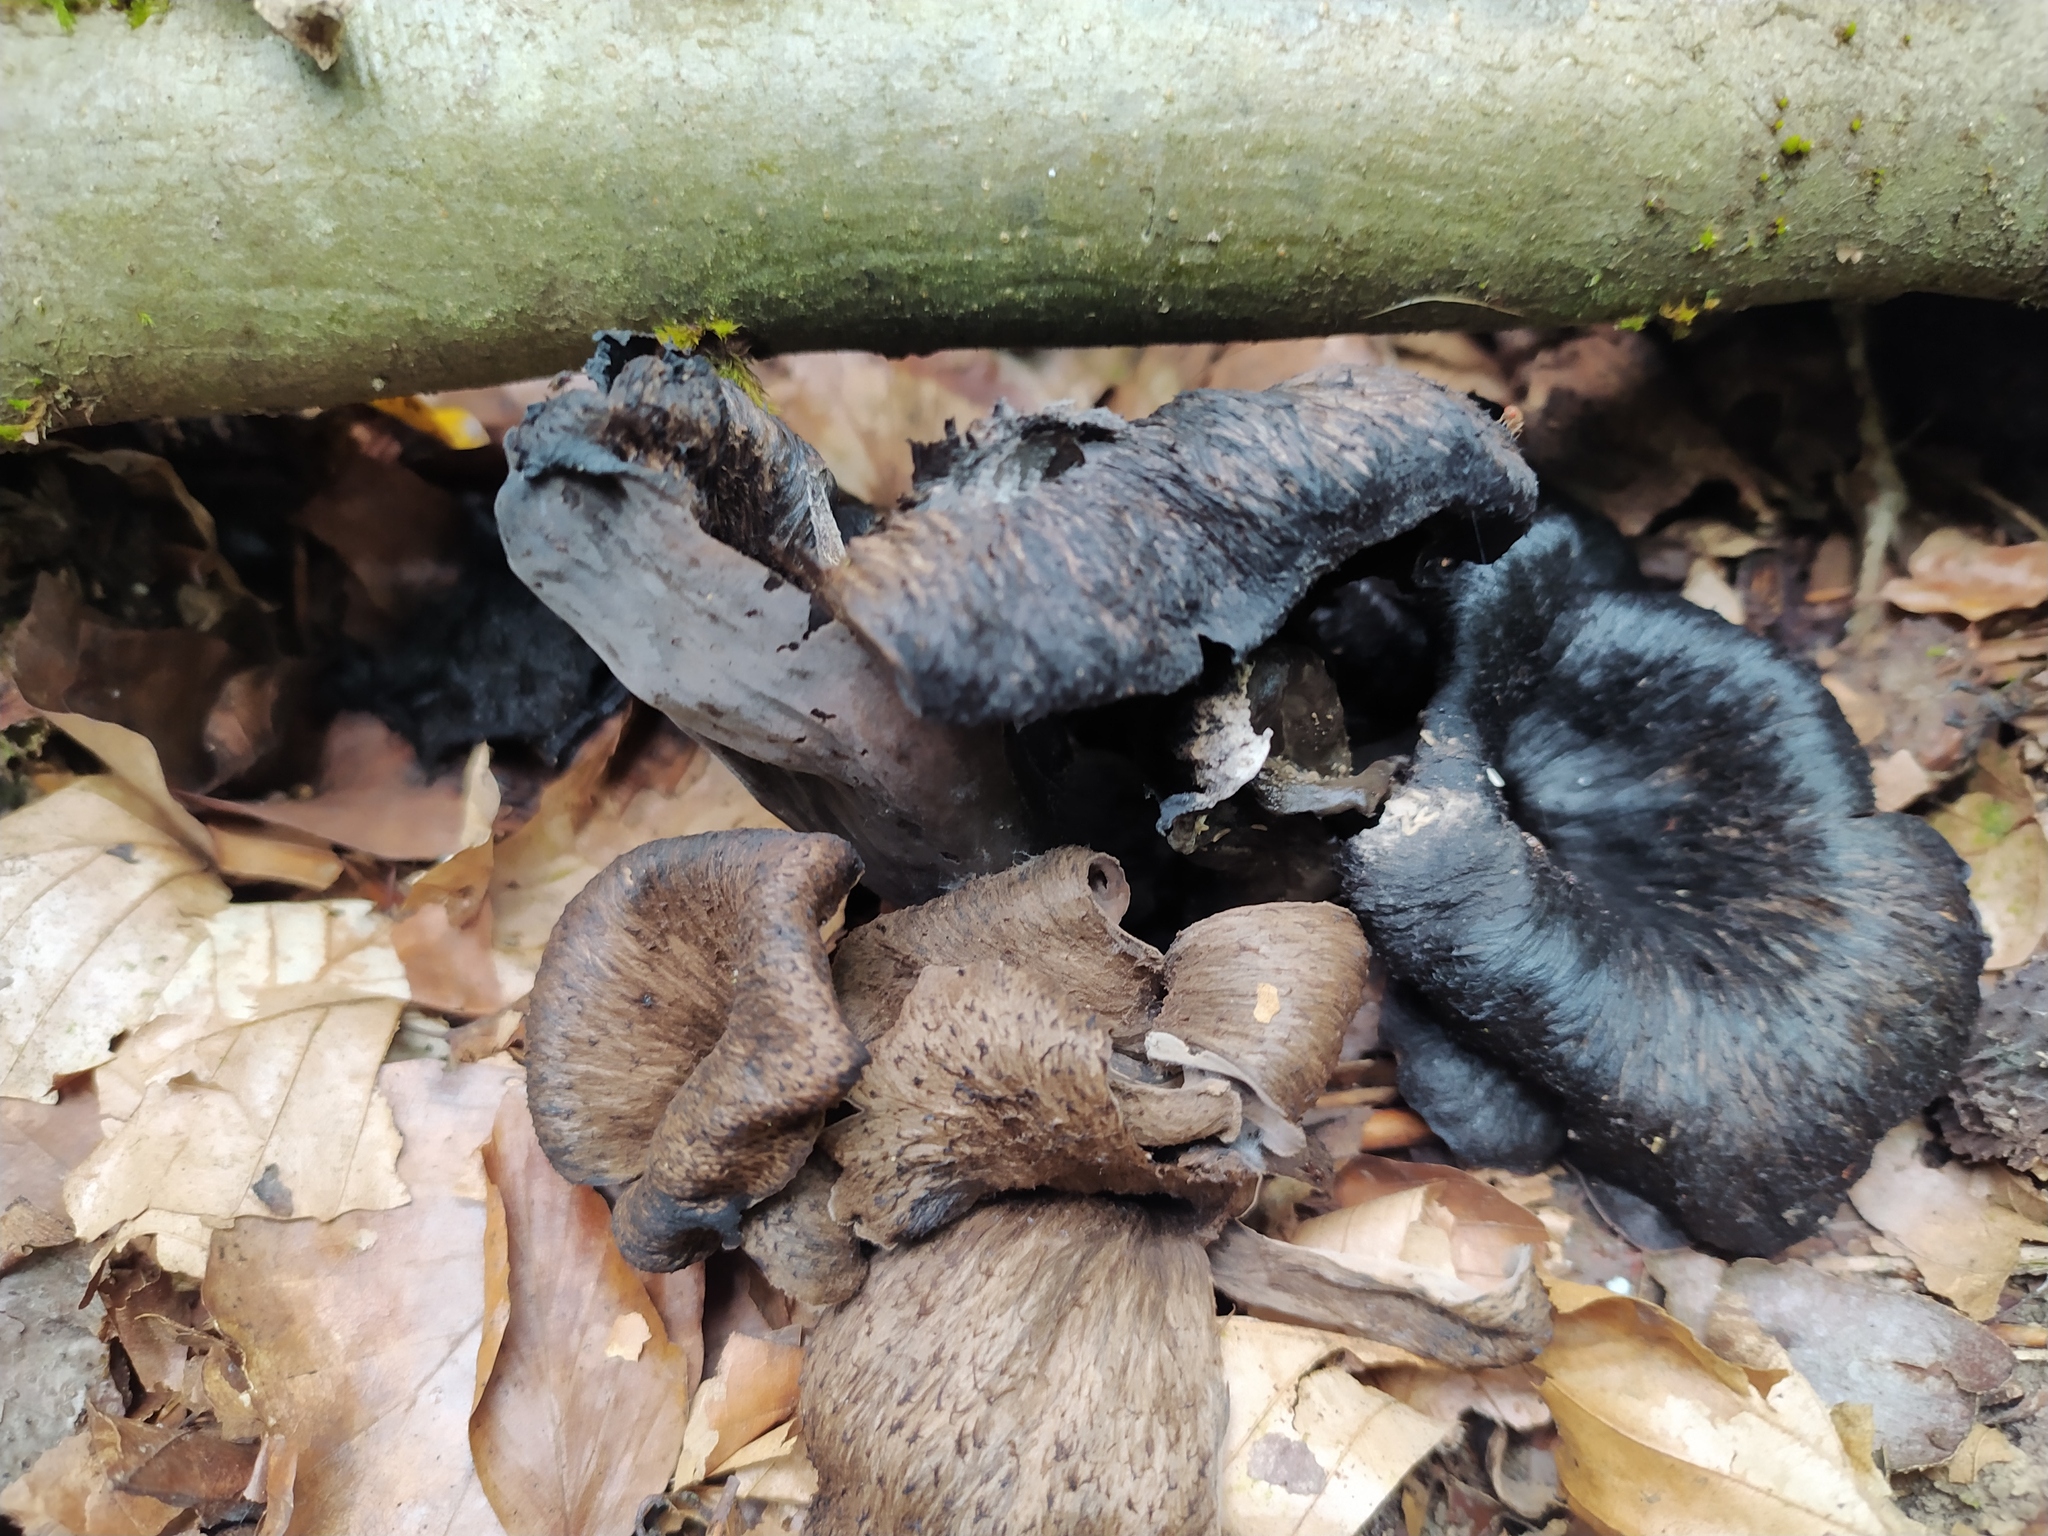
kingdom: Fungi
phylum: Basidiomycota
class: Agaricomycetes
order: Cantharellales
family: Hydnaceae
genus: Craterellus
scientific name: Craterellus cornucopioides
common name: Horn of plenty
